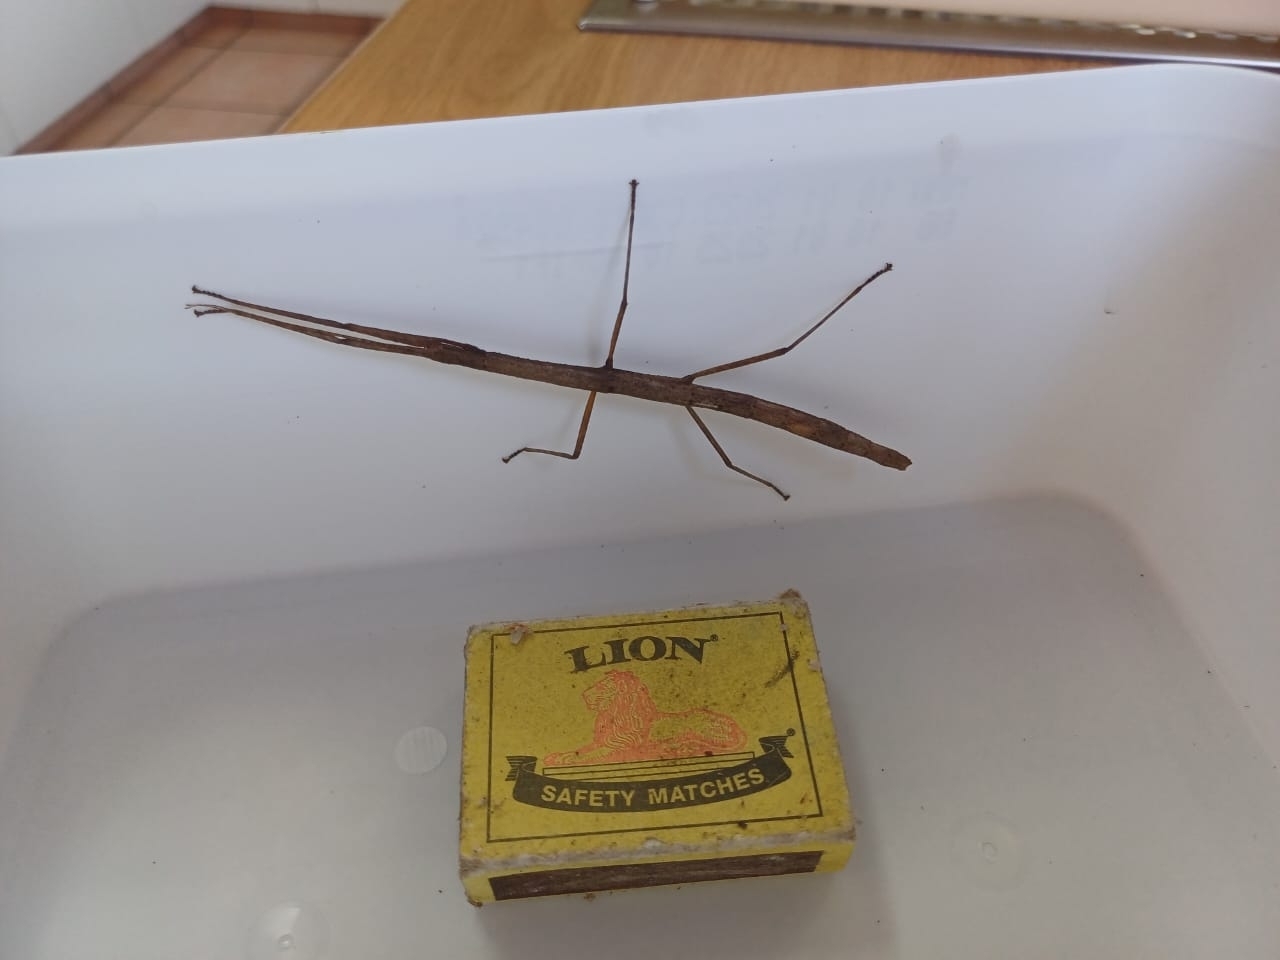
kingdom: Animalia
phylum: Arthropoda
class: Insecta
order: Phasmida
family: Lonchodidae
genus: Carausius
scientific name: Carausius morosus
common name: Indian stick insect
